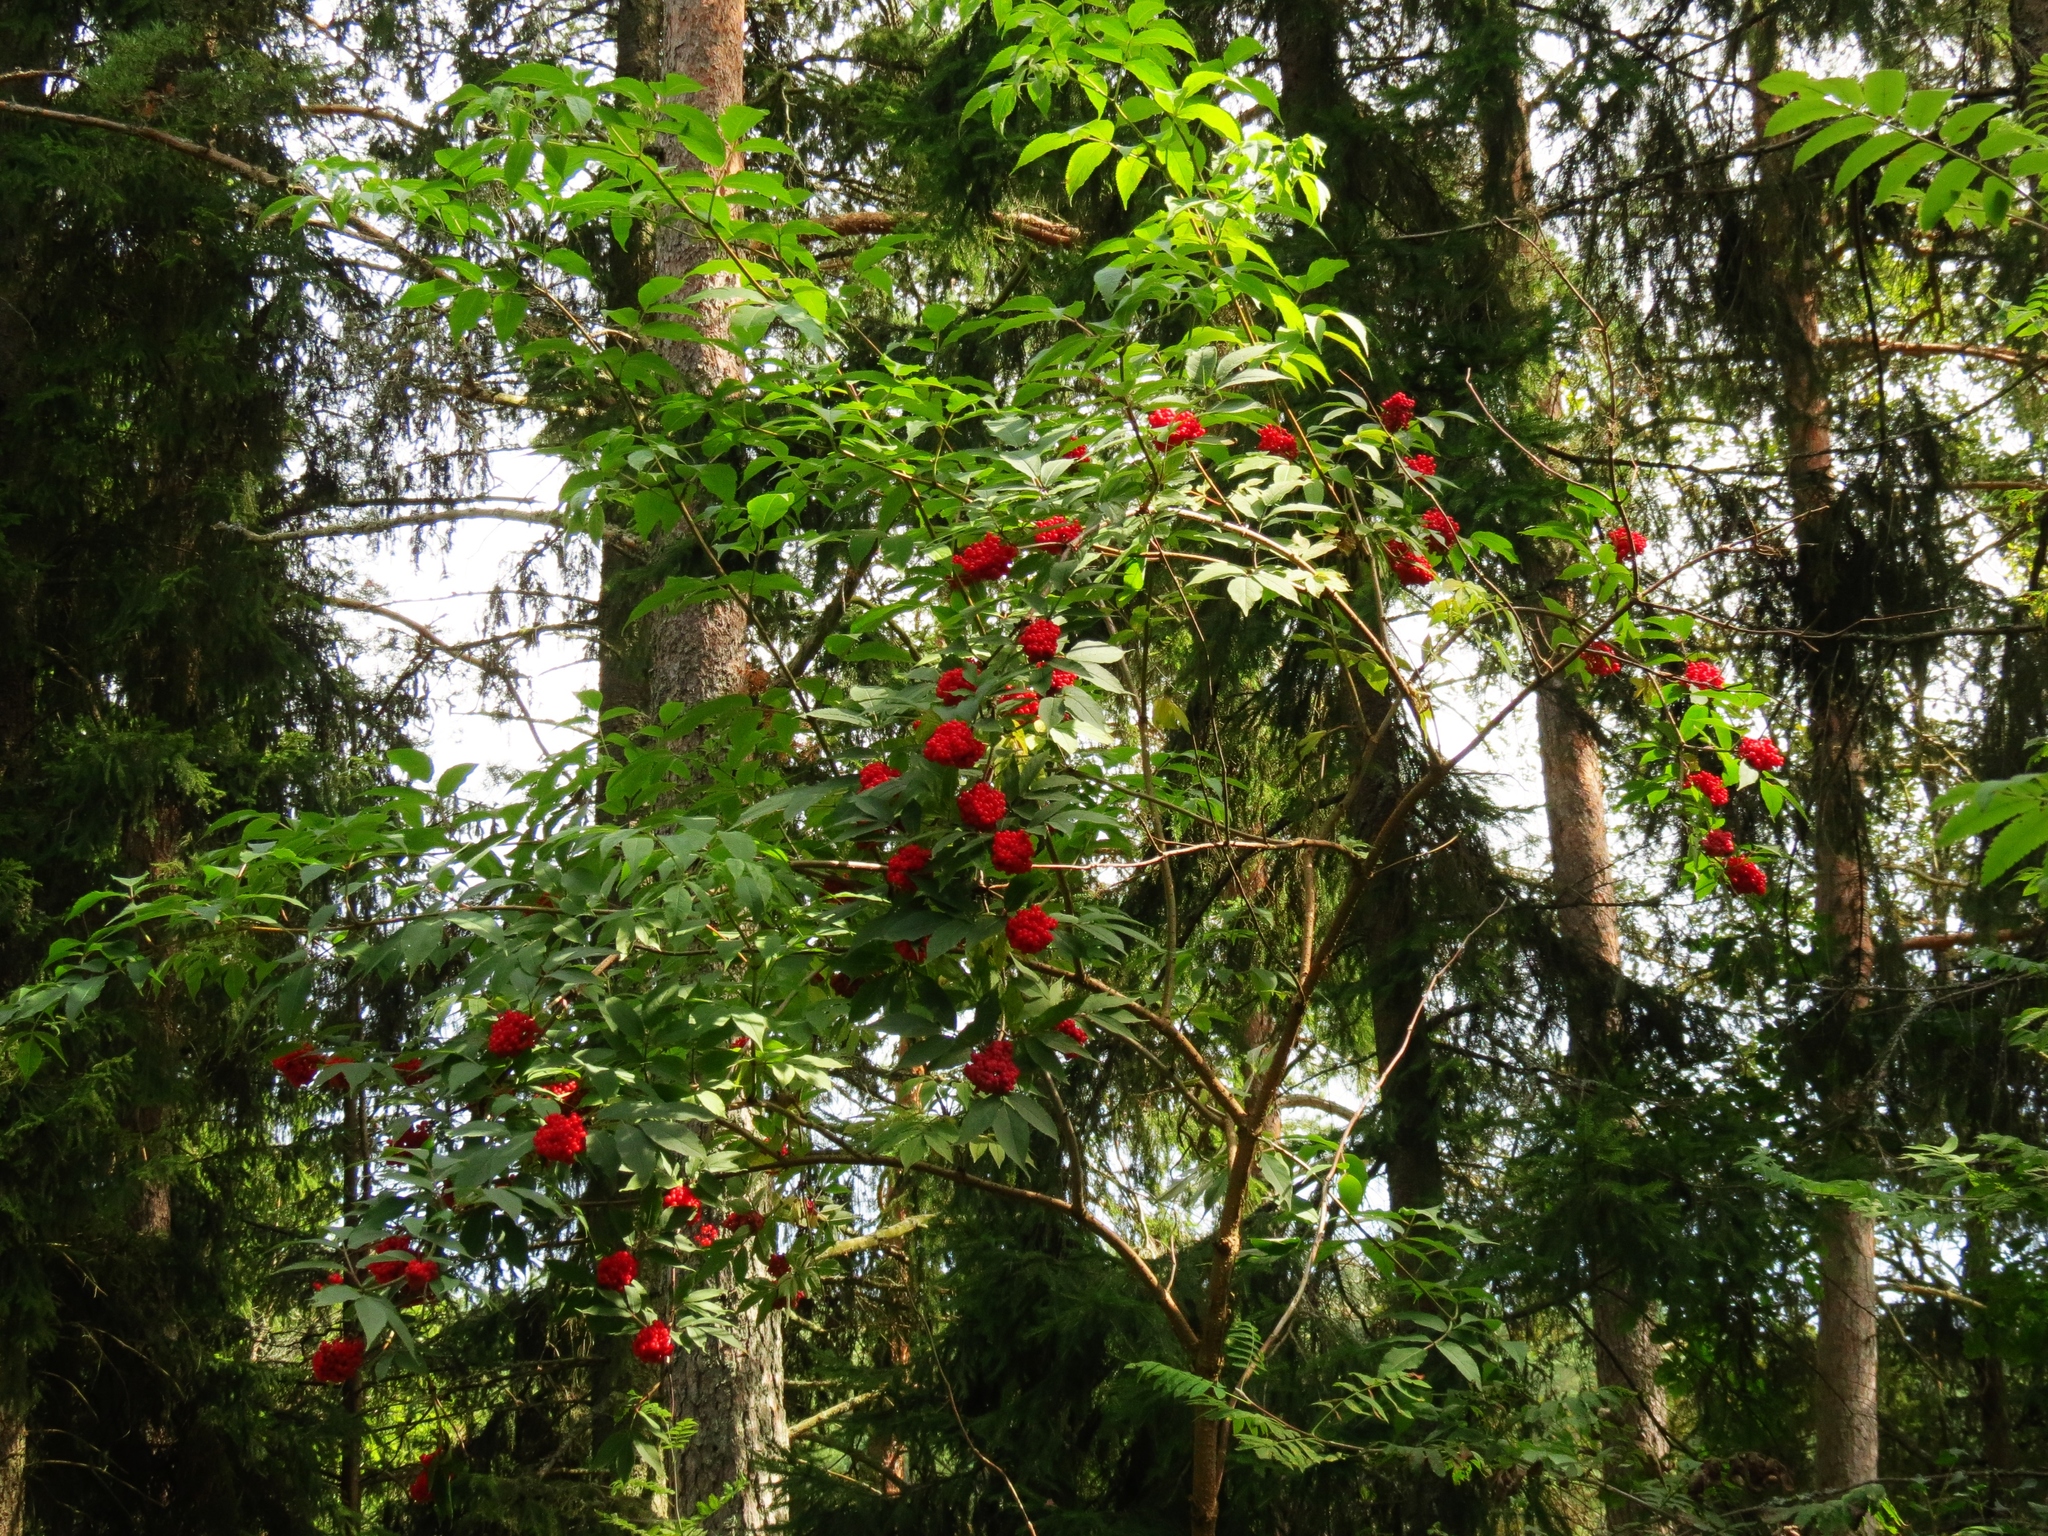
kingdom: Plantae
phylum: Tracheophyta
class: Magnoliopsida
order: Dipsacales
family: Viburnaceae
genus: Sambucus
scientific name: Sambucus racemosa
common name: Red-berried elder
